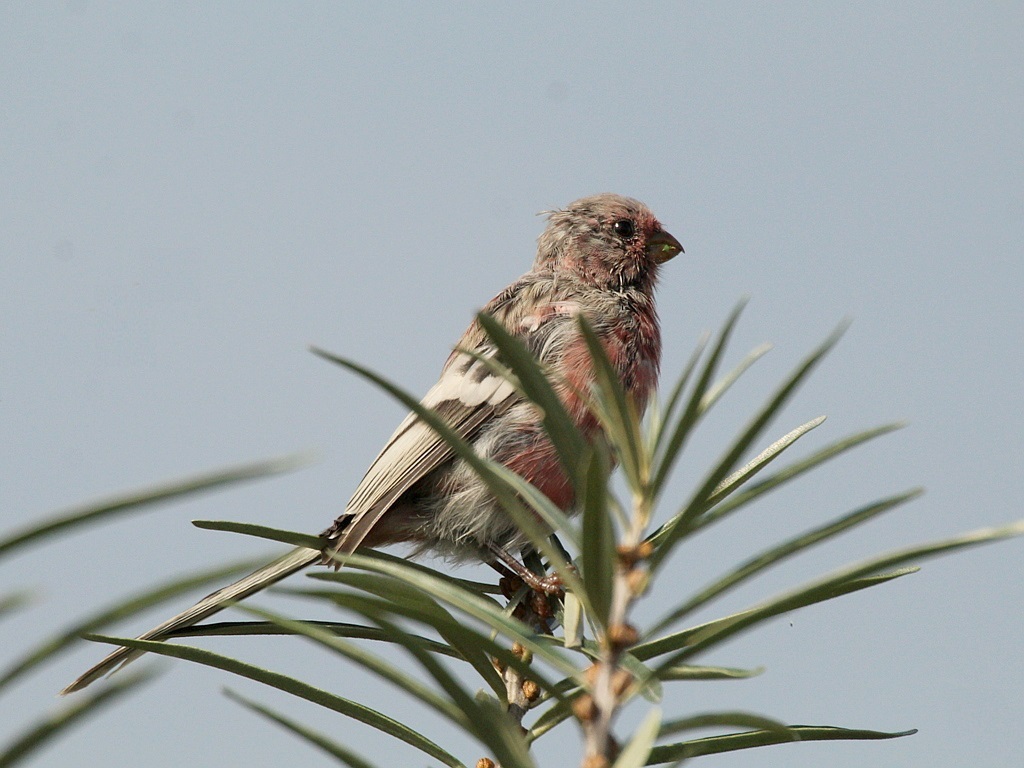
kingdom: Animalia
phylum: Chordata
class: Aves
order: Passeriformes
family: Fringillidae
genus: Carpodacus
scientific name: Carpodacus sibiricus
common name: Long-tailed rosefinch
